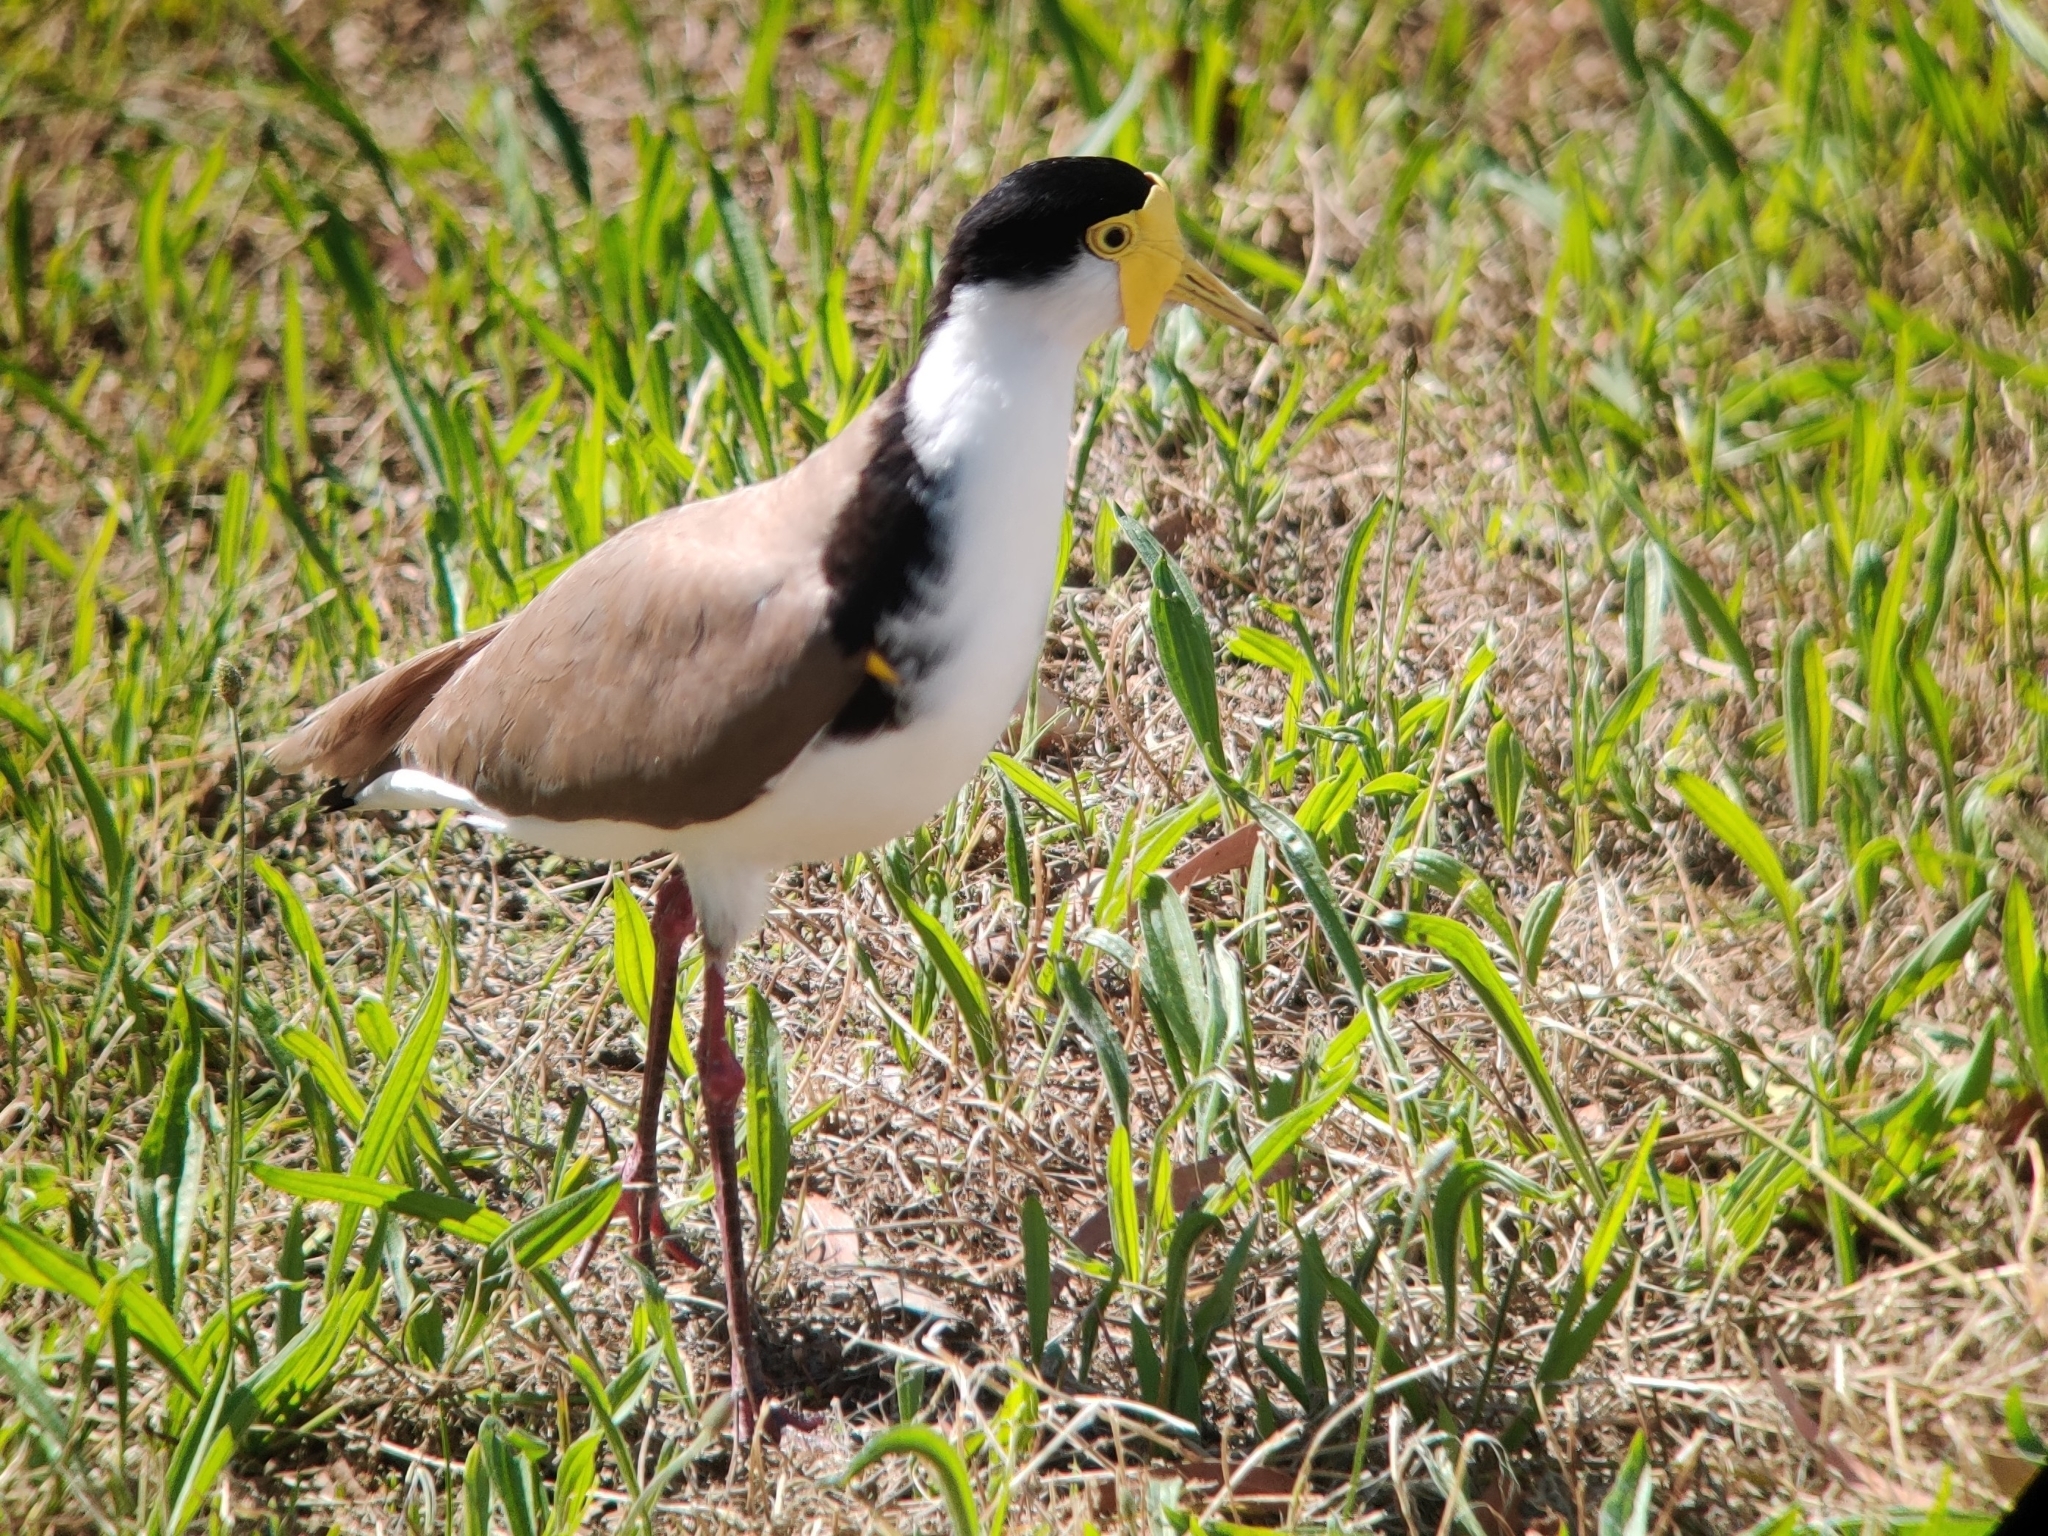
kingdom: Animalia
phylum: Chordata
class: Aves
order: Charadriiformes
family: Charadriidae
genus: Vanellus
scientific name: Vanellus miles
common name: Masked lapwing
